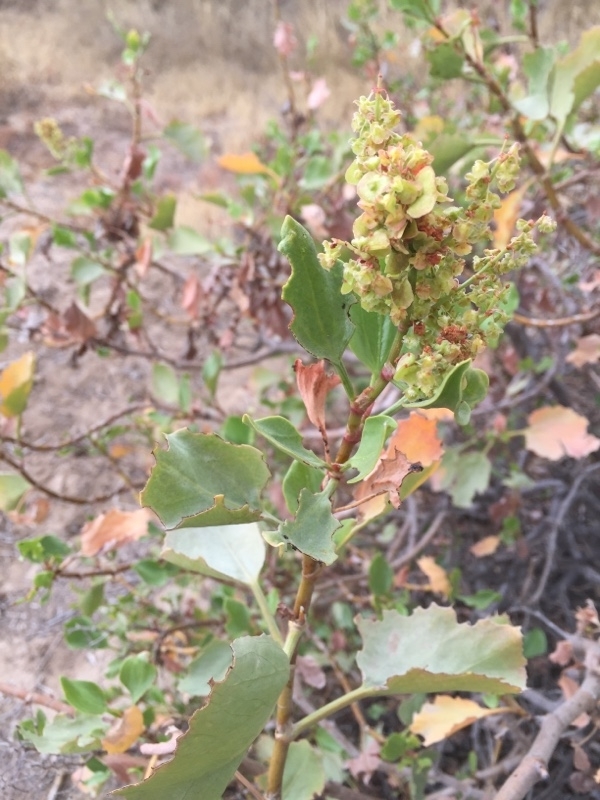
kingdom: Plantae
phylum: Tracheophyta
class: Magnoliopsida
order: Caryophyllales
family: Polygonaceae
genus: Rumex
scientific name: Rumex lunaria
